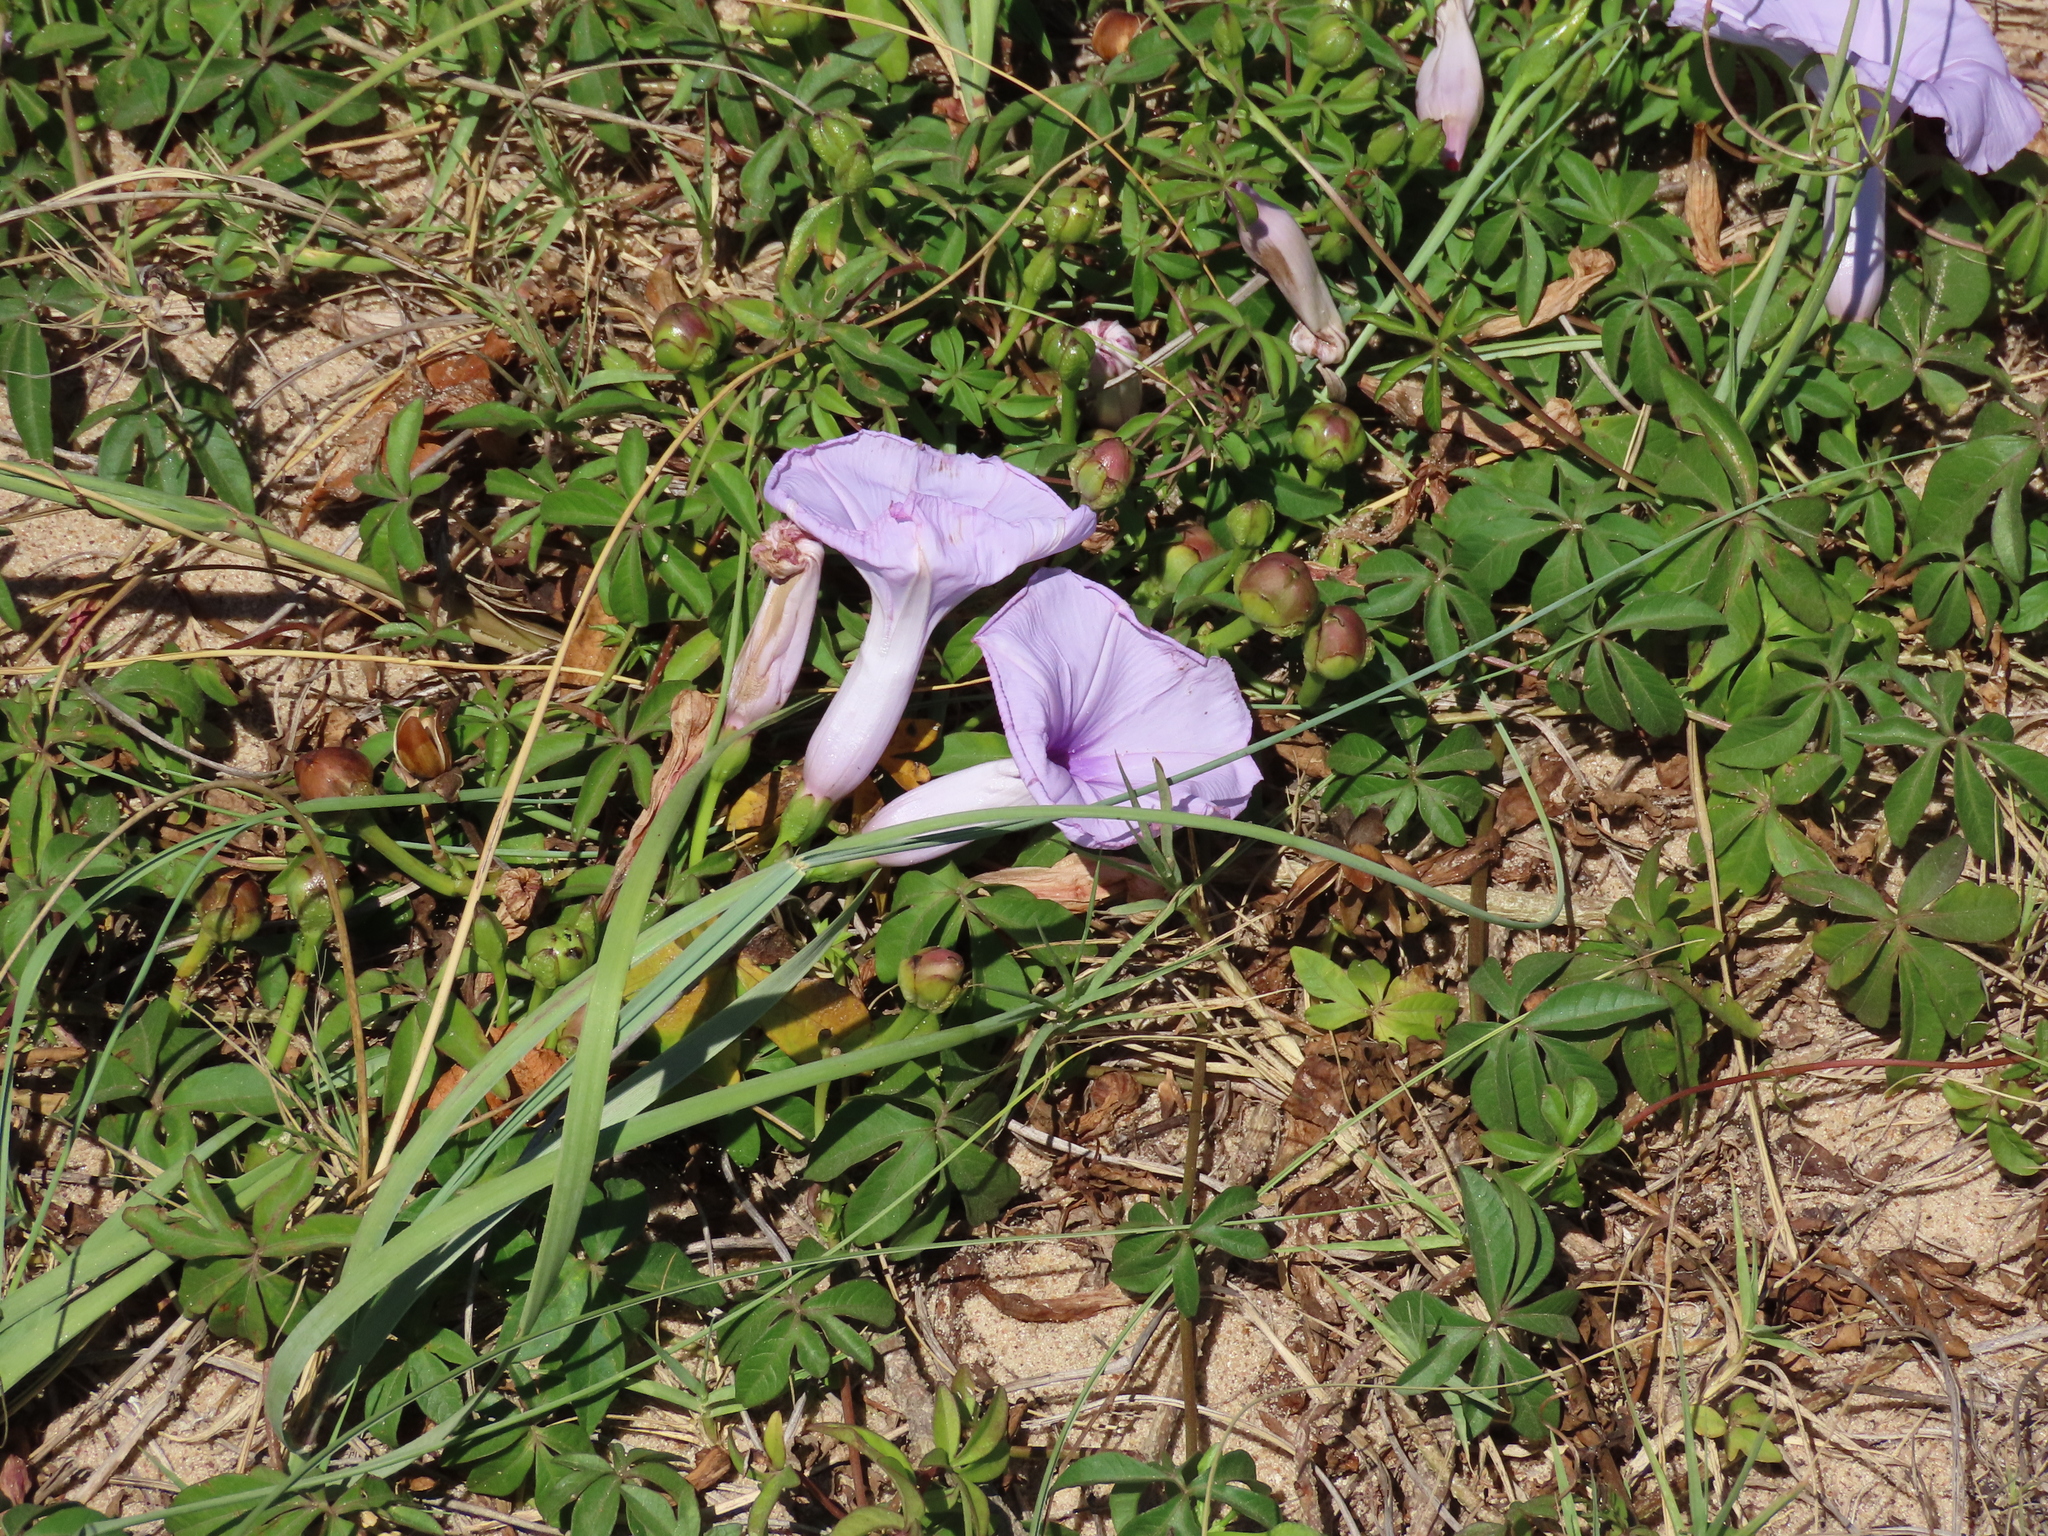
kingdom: Plantae
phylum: Tracheophyta
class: Magnoliopsida
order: Solanales
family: Convolvulaceae
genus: Ipomoea
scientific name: Ipomoea cairica
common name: Mile a minute vine
